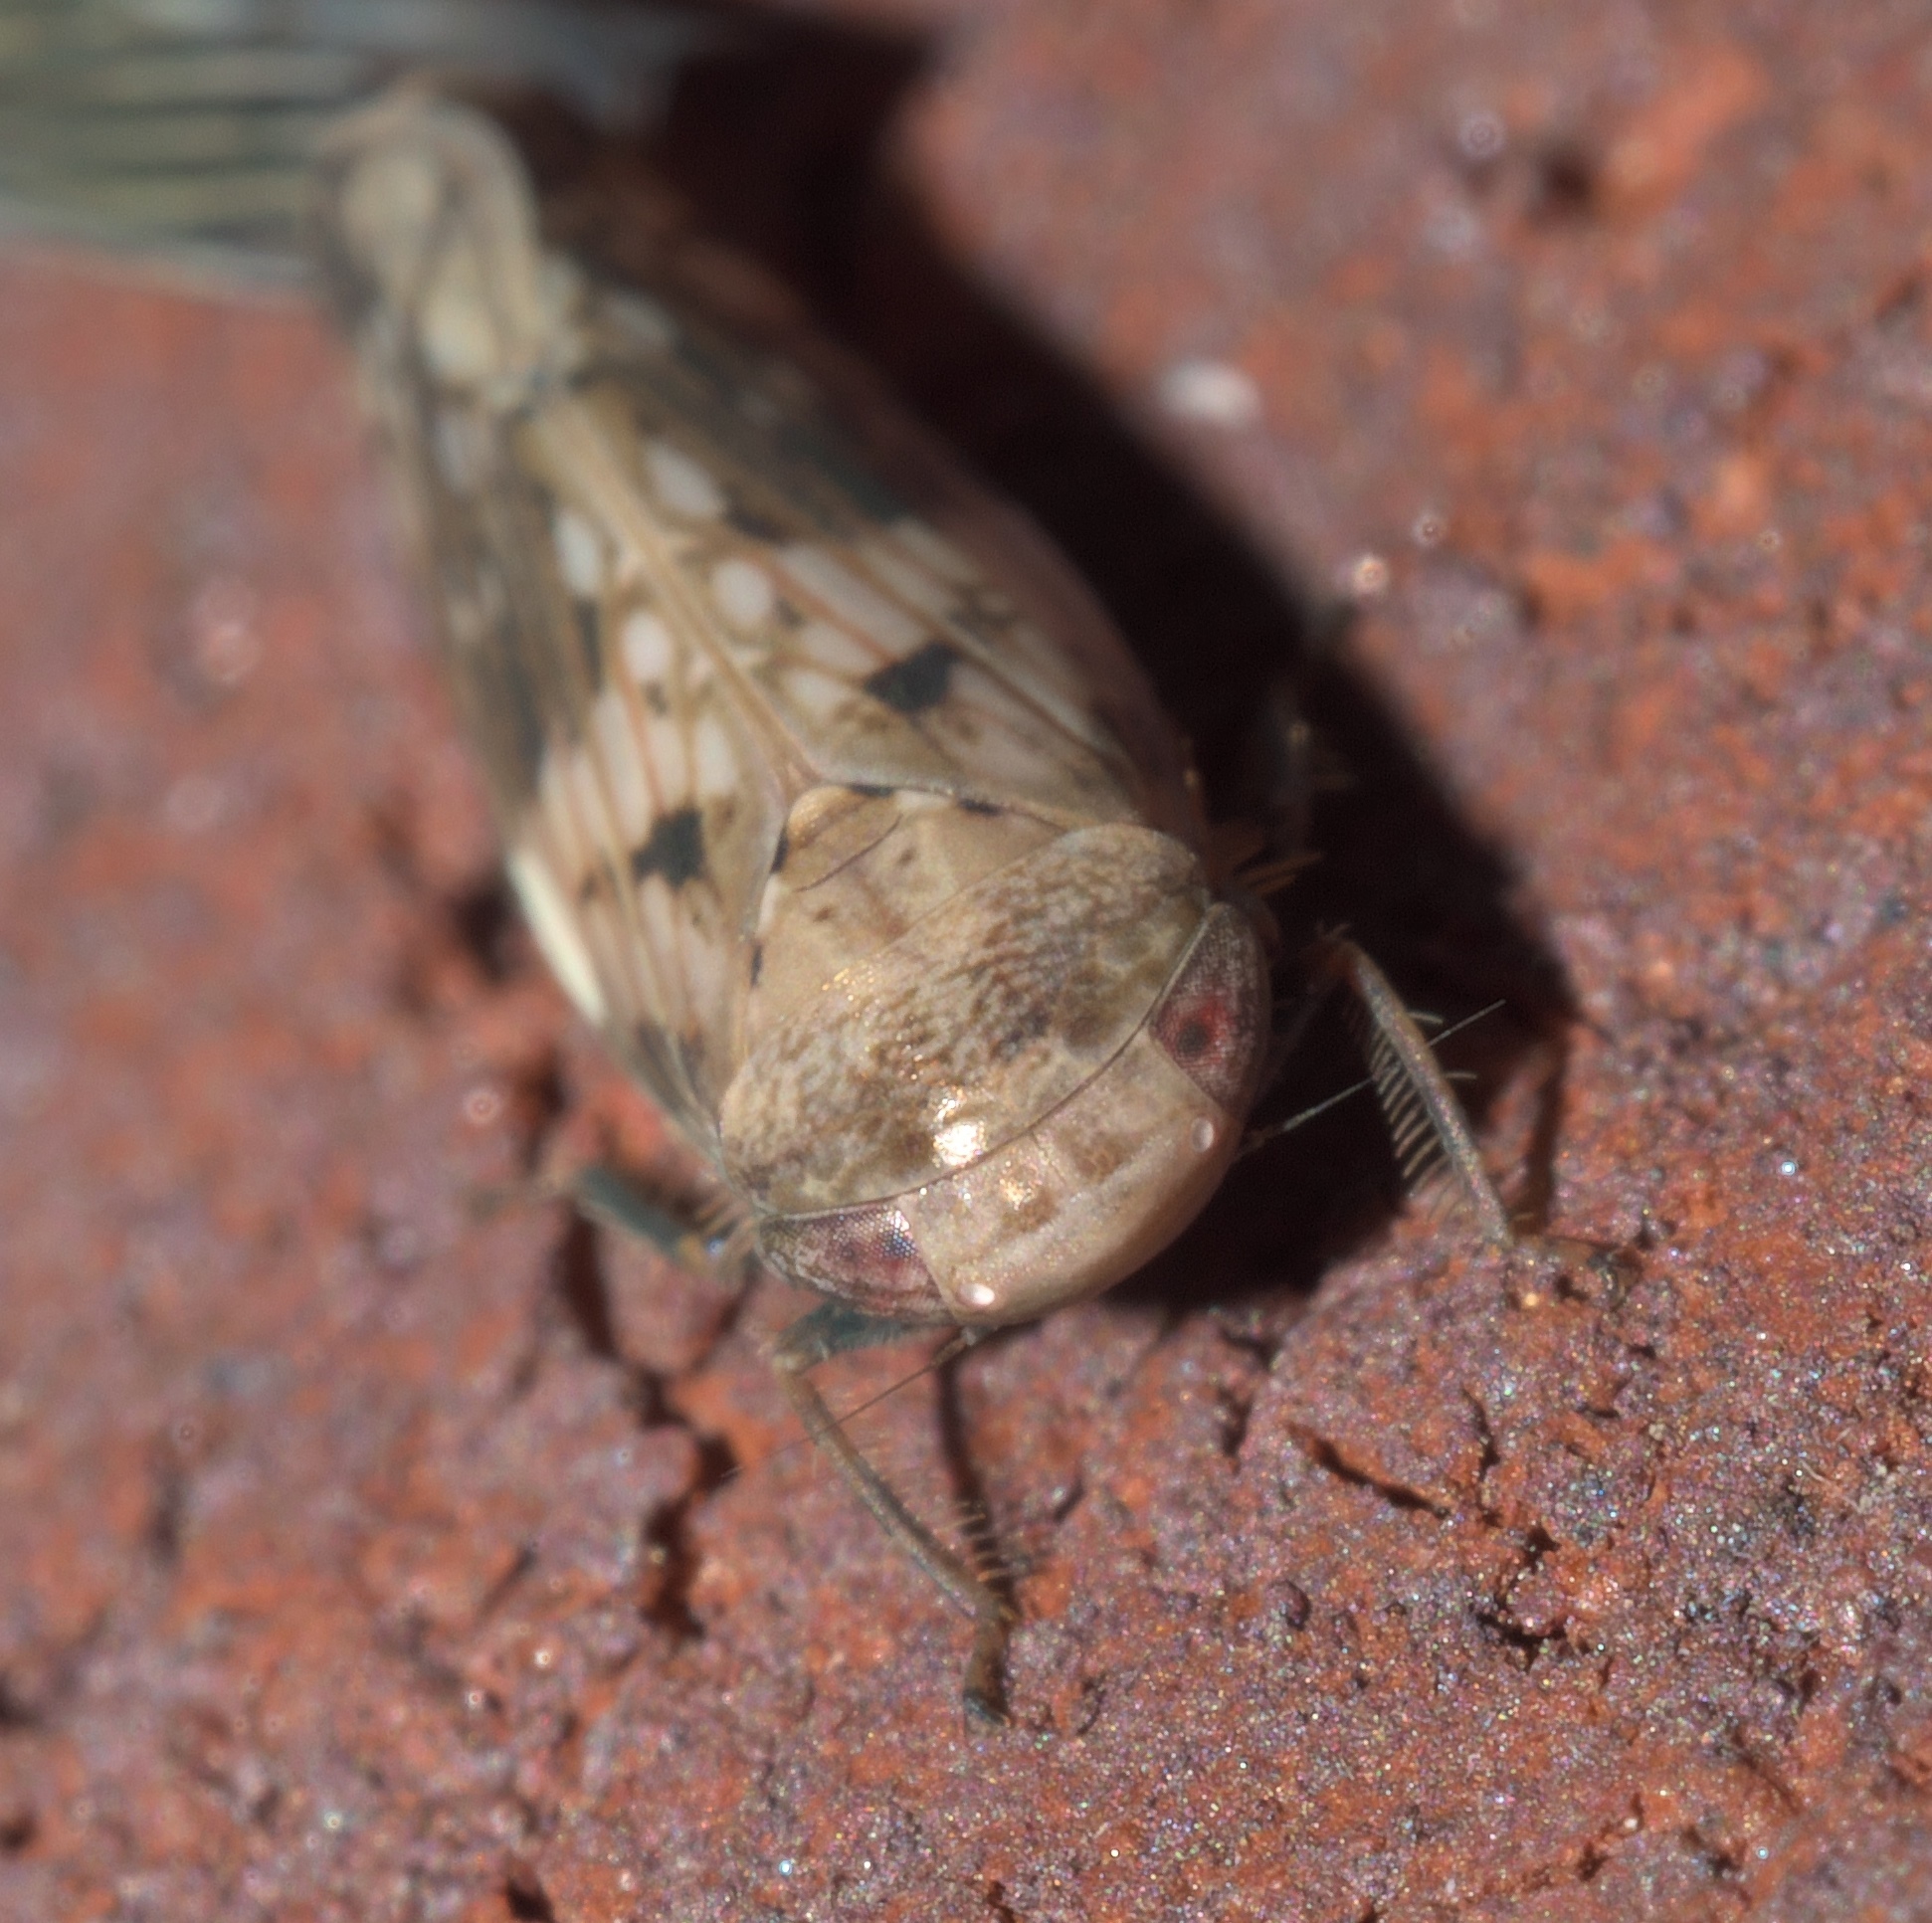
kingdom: Animalia
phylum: Arthropoda
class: Insecta
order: Hemiptera
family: Cicadellidae
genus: Menosoma
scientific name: Menosoma cinctum
